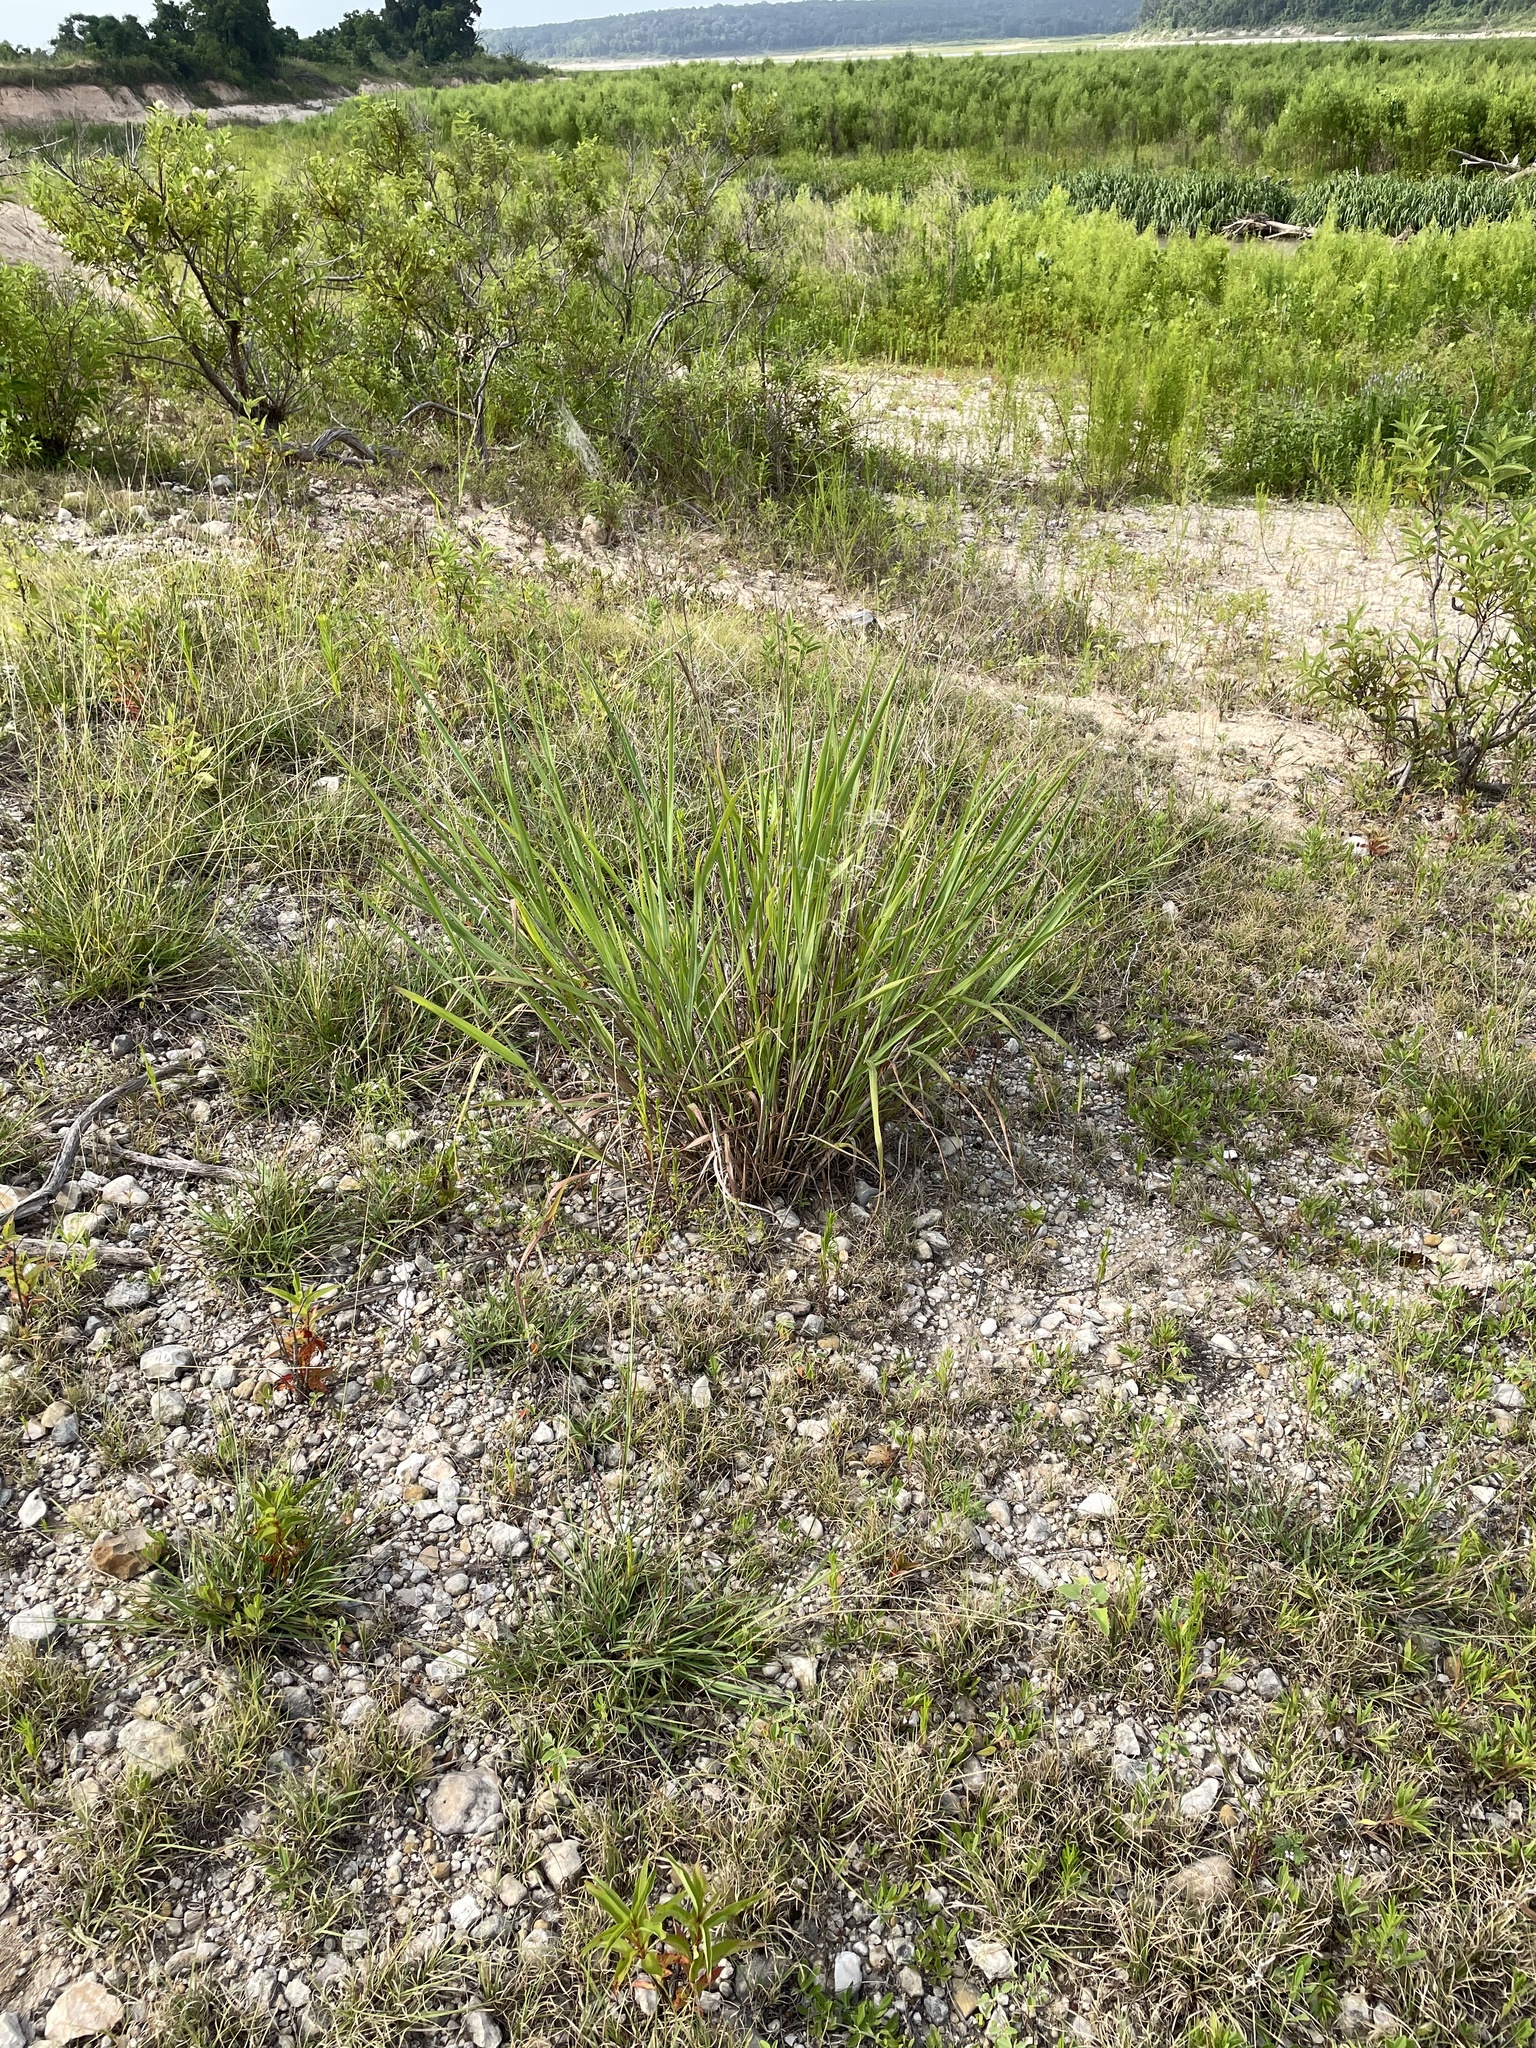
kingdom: Plantae
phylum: Tracheophyta
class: Liliopsida
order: Poales
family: Poaceae
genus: Panicum
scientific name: Panicum virgatum
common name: Switchgrass
